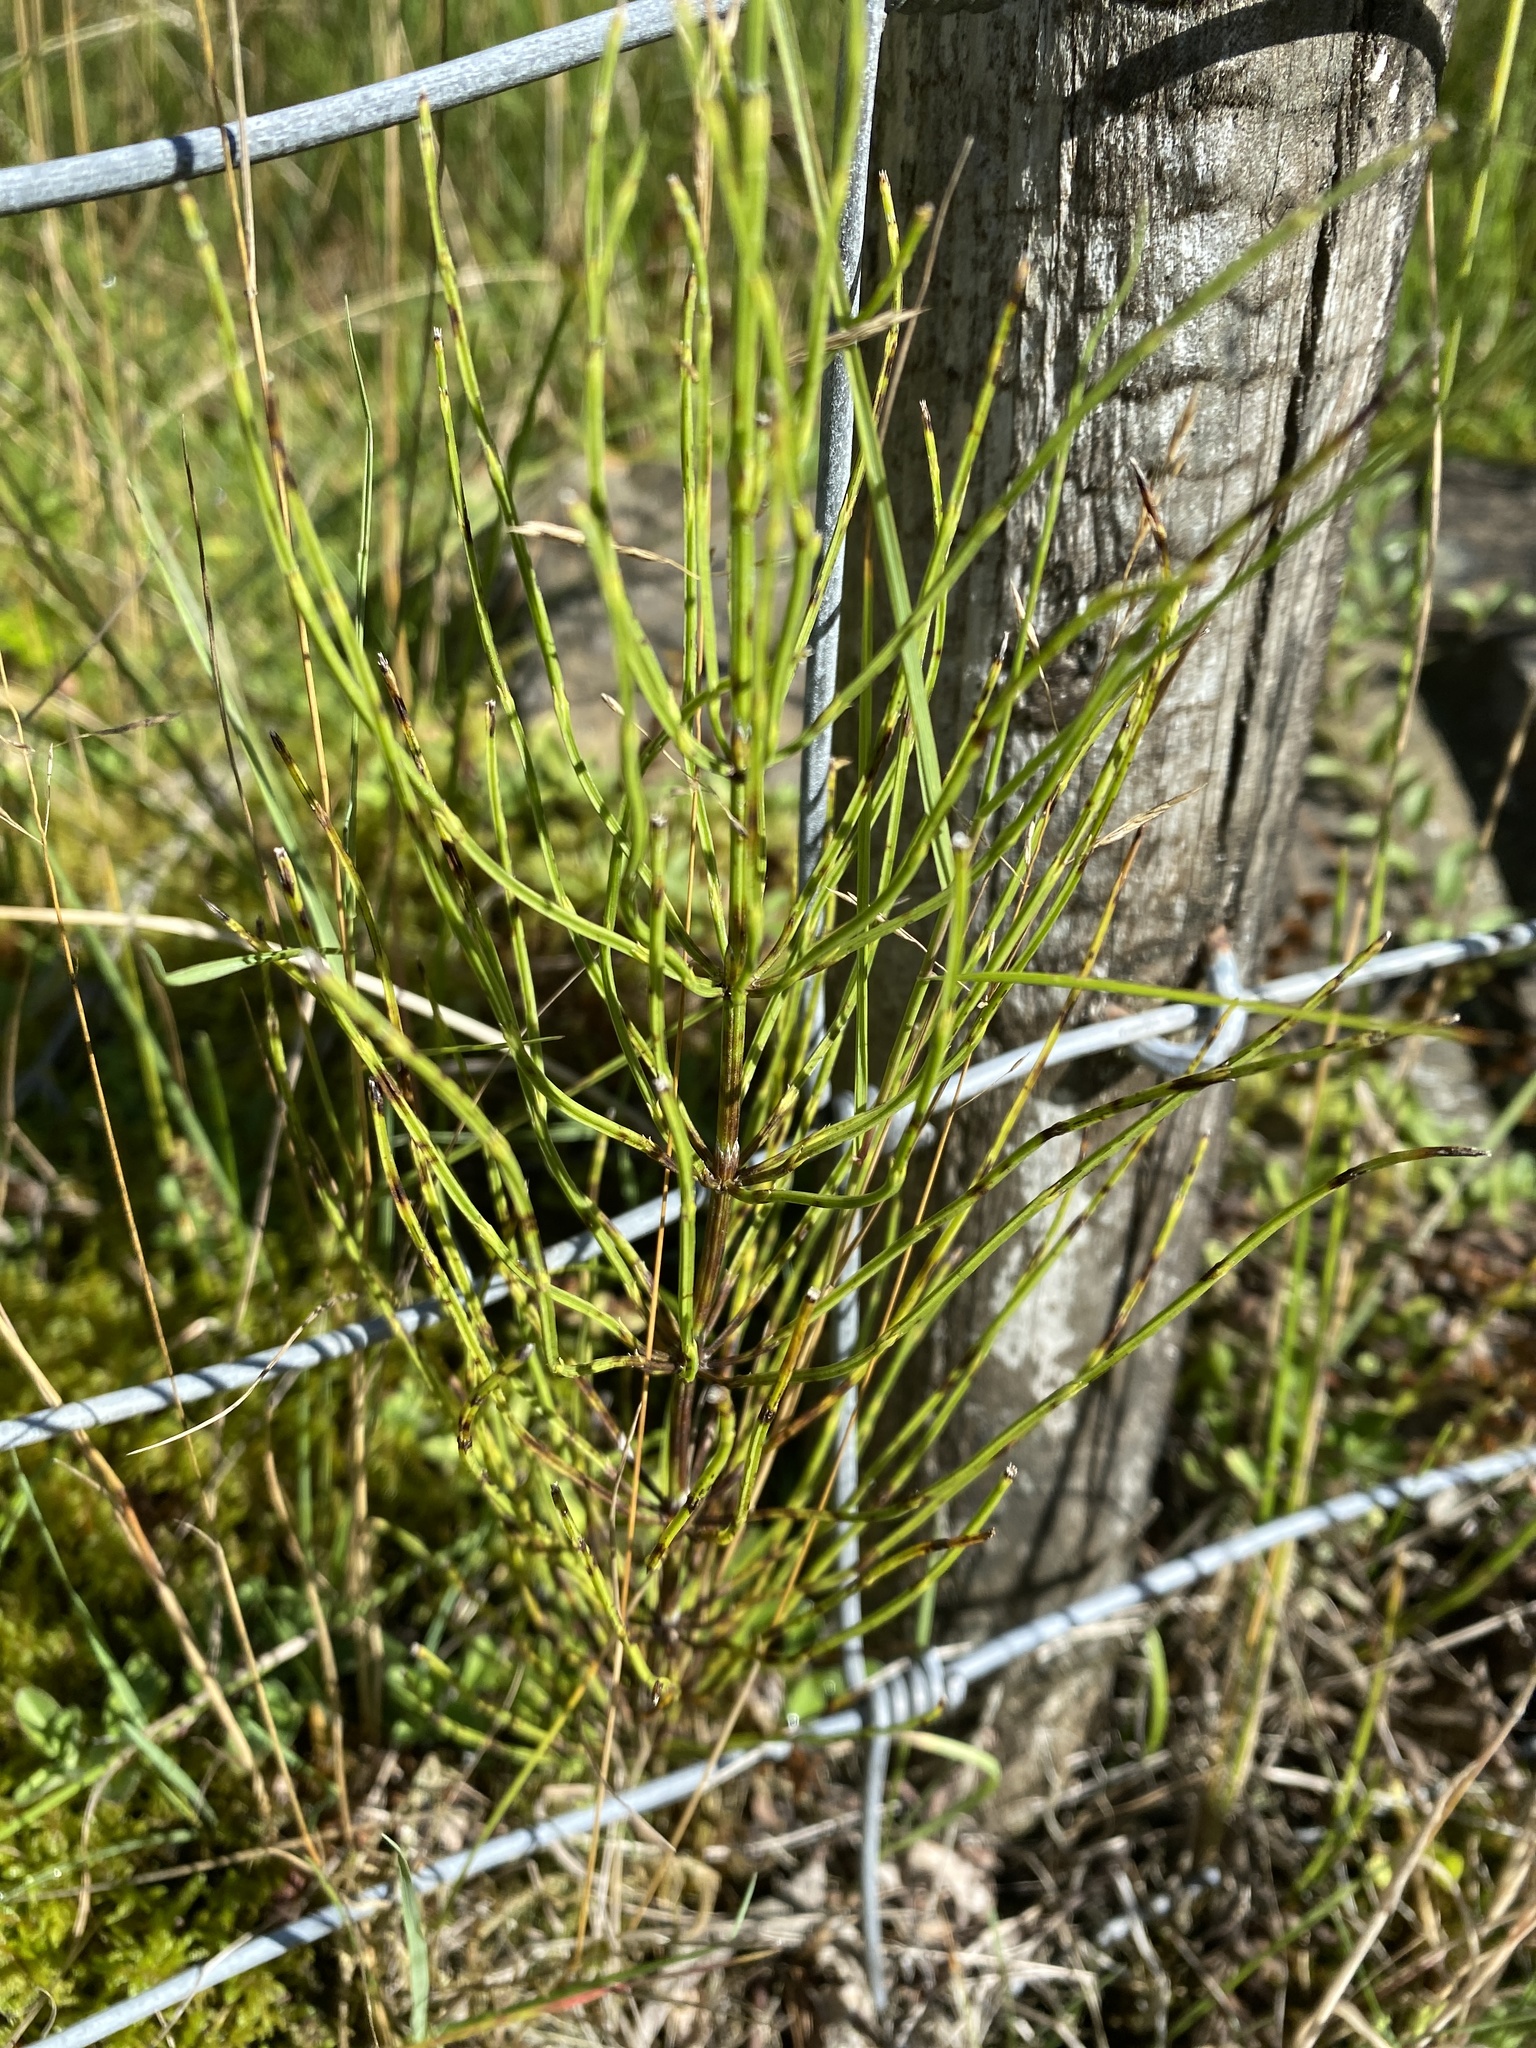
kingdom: Plantae
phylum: Tracheophyta
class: Polypodiopsida
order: Equisetales
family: Equisetaceae
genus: Equisetum
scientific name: Equisetum arvense
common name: Field horsetail
